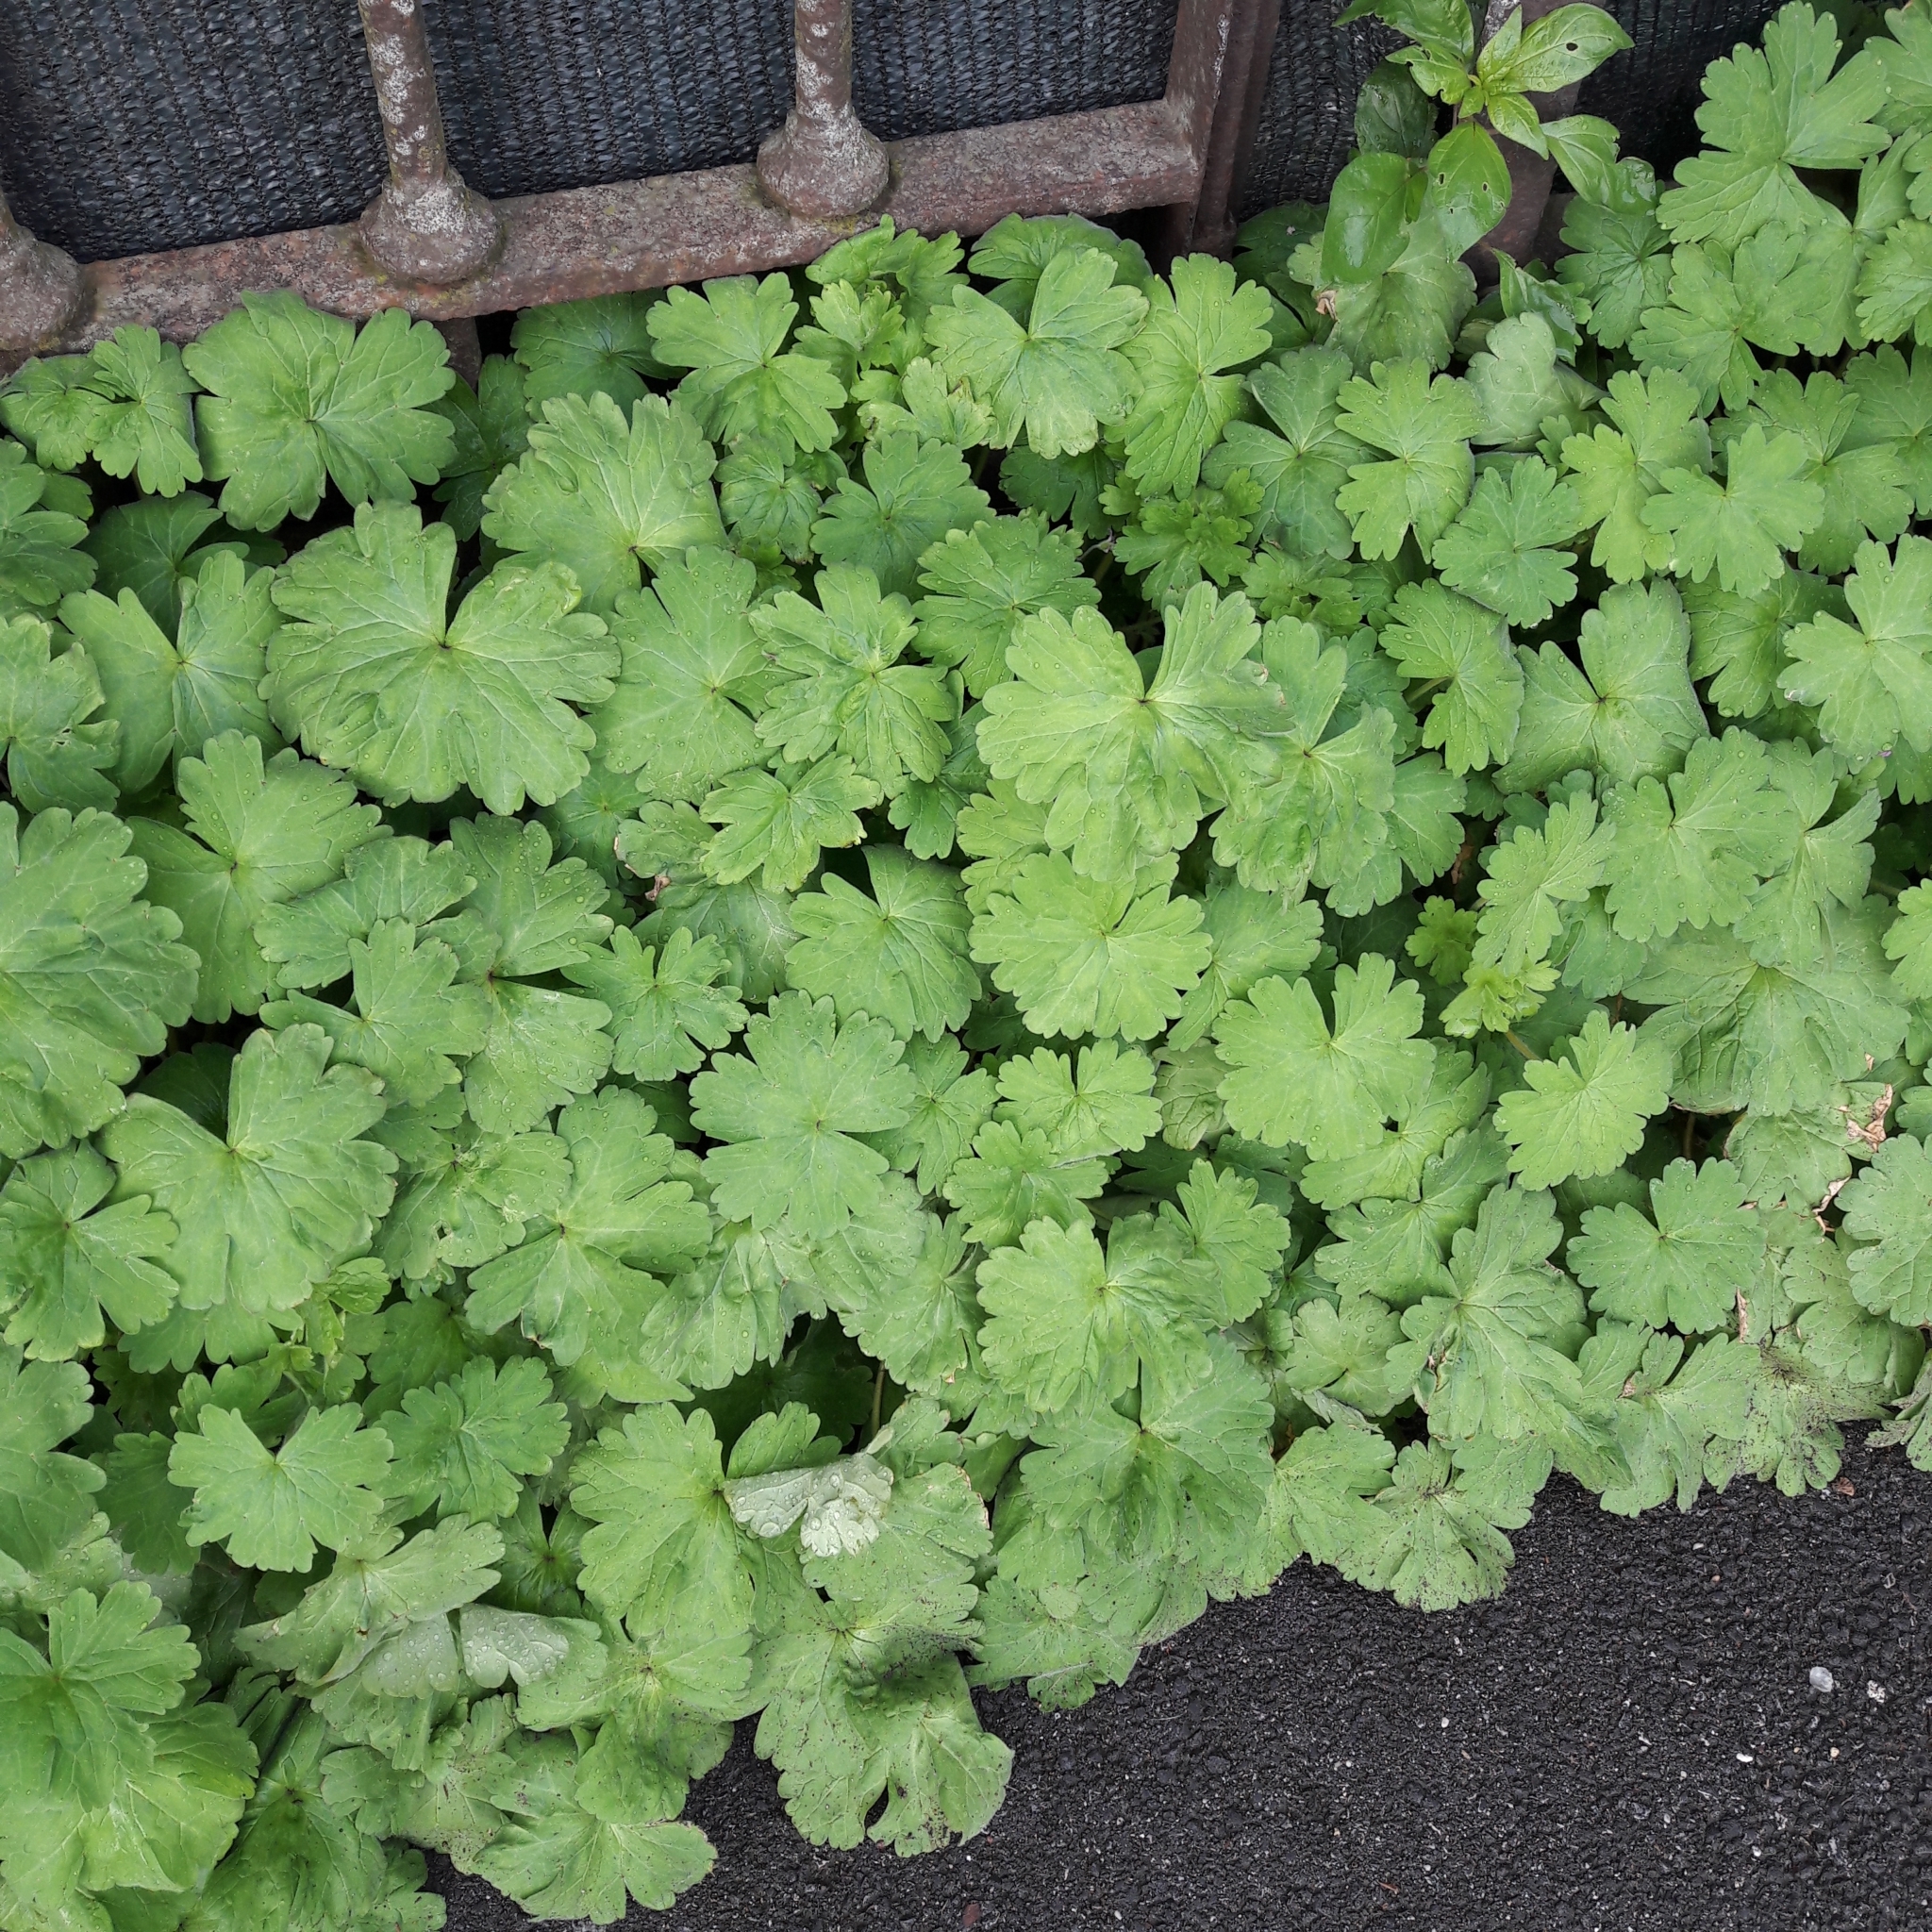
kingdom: Plantae
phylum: Tracheophyta
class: Magnoliopsida
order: Geraniales
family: Geraniaceae
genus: Geranium
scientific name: Geranium rotundifolium
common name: Round-leaved crane's-bill
